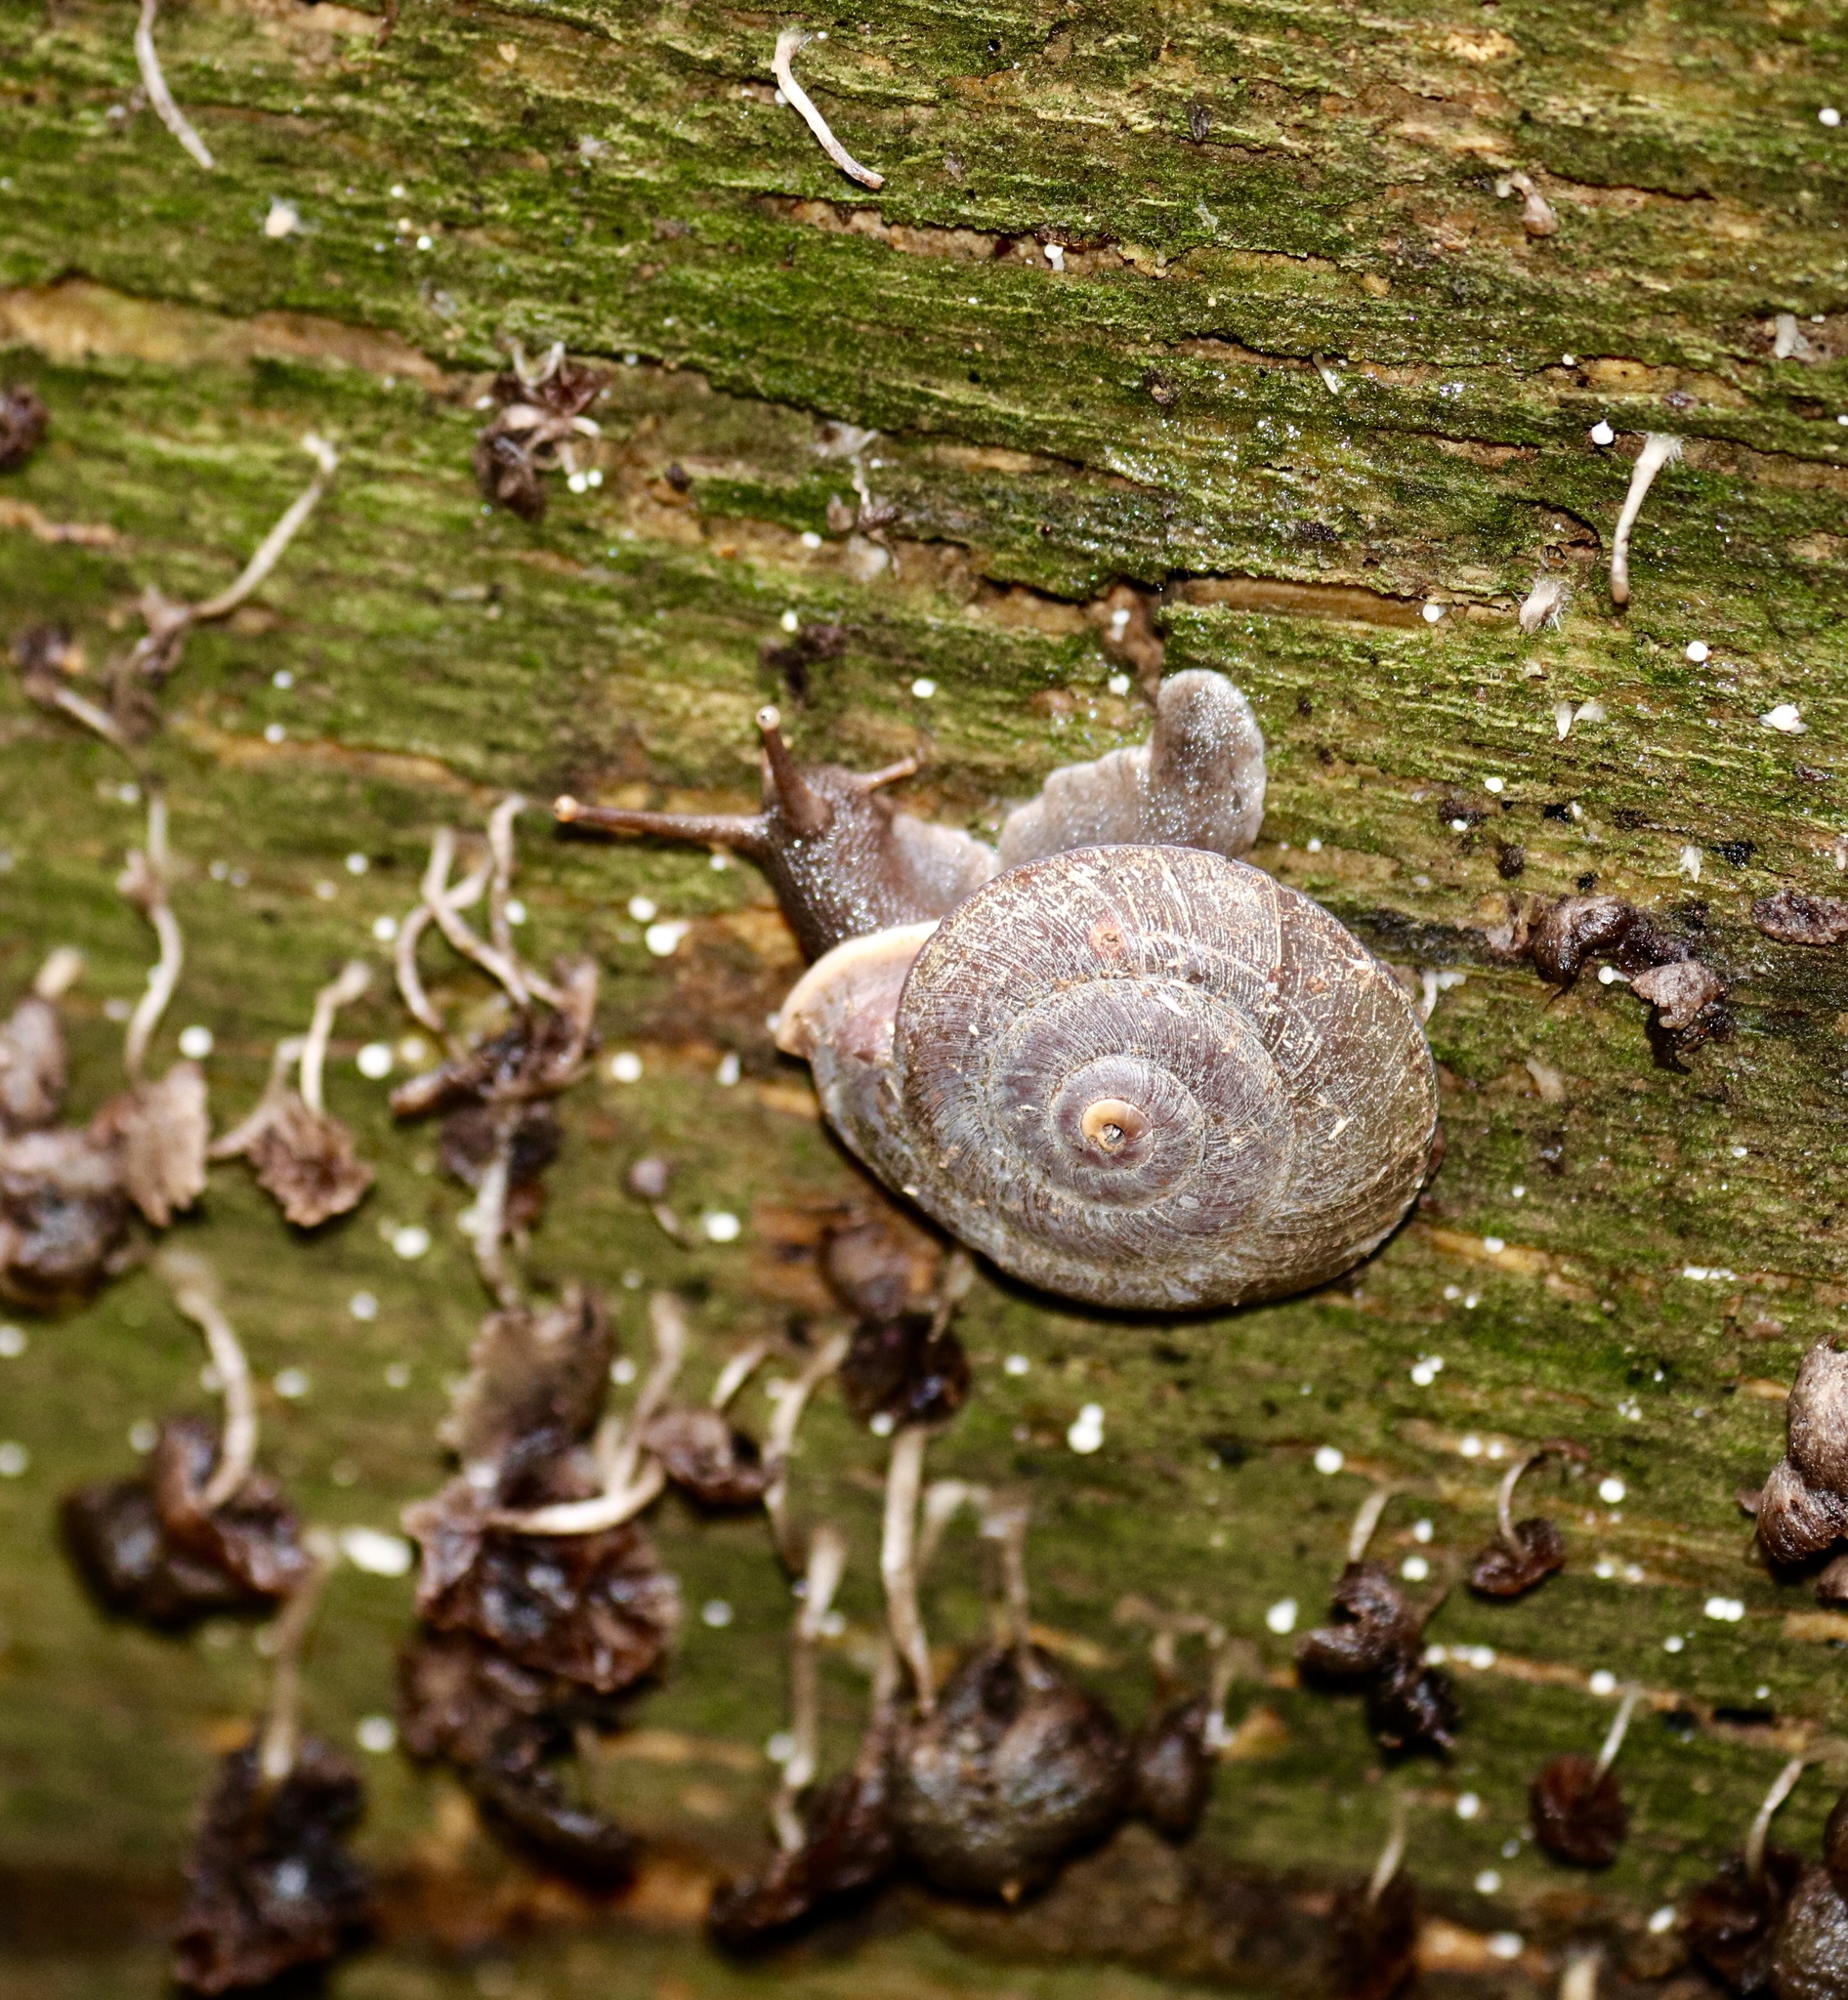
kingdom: Animalia
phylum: Mollusca
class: Gastropoda
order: Stylommatophora
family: Labyrinthidae
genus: Labyrinthus
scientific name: Labyrinthus otis
